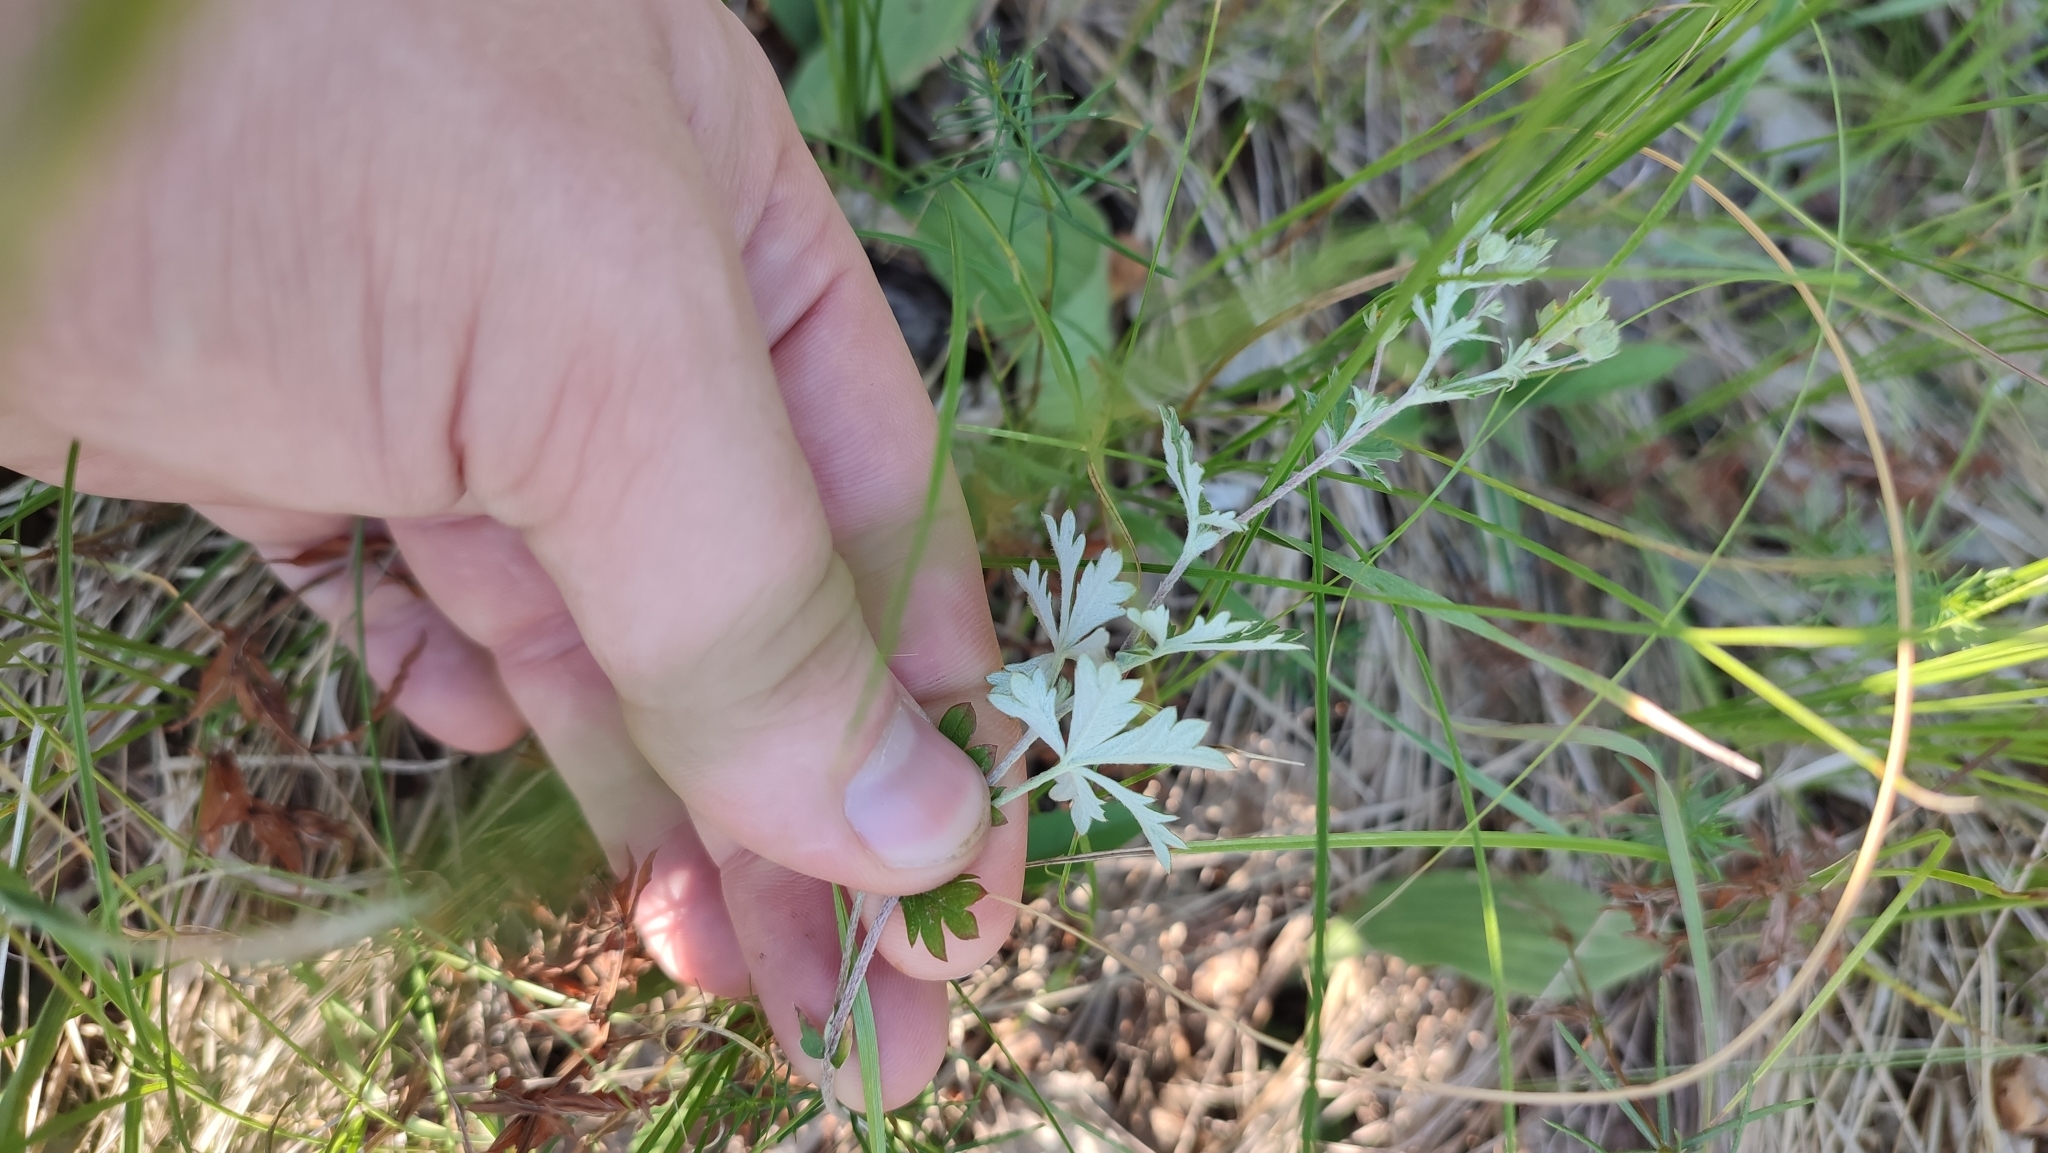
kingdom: Plantae
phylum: Tracheophyta
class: Magnoliopsida
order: Rosales
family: Rosaceae
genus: Potentilla
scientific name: Potentilla argentea
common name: Hoary cinquefoil
